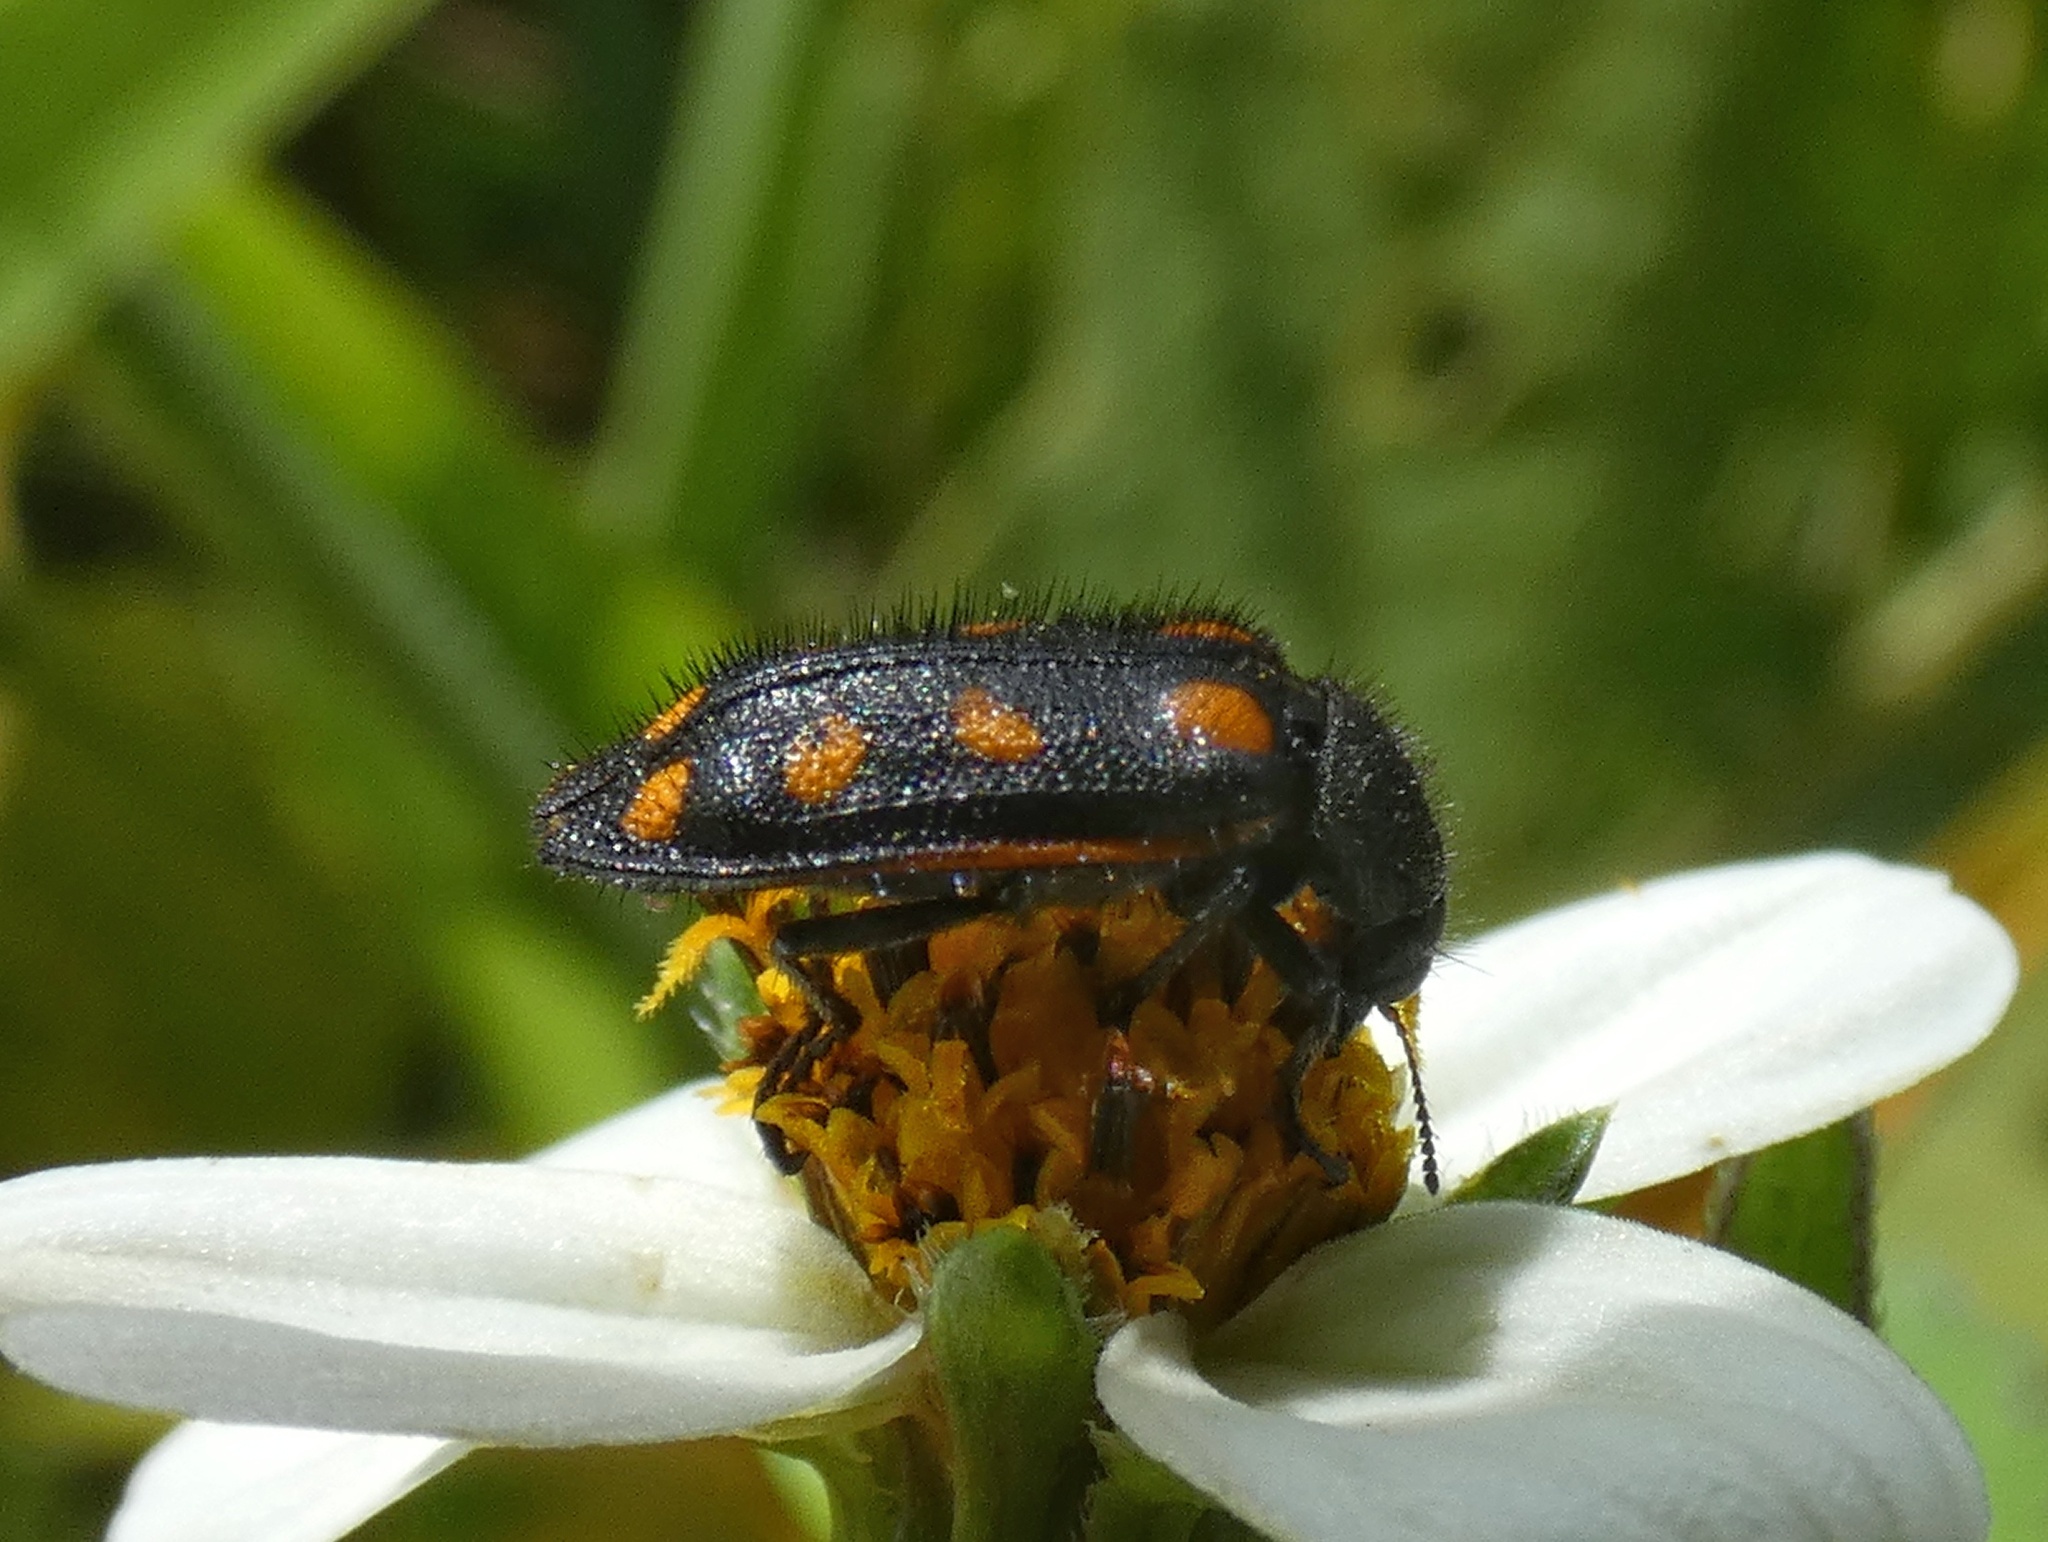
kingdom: Animalia
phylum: Arthropoda
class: Insecta
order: Coleoptera
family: Melyridae
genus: Astylus
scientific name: Astylus
